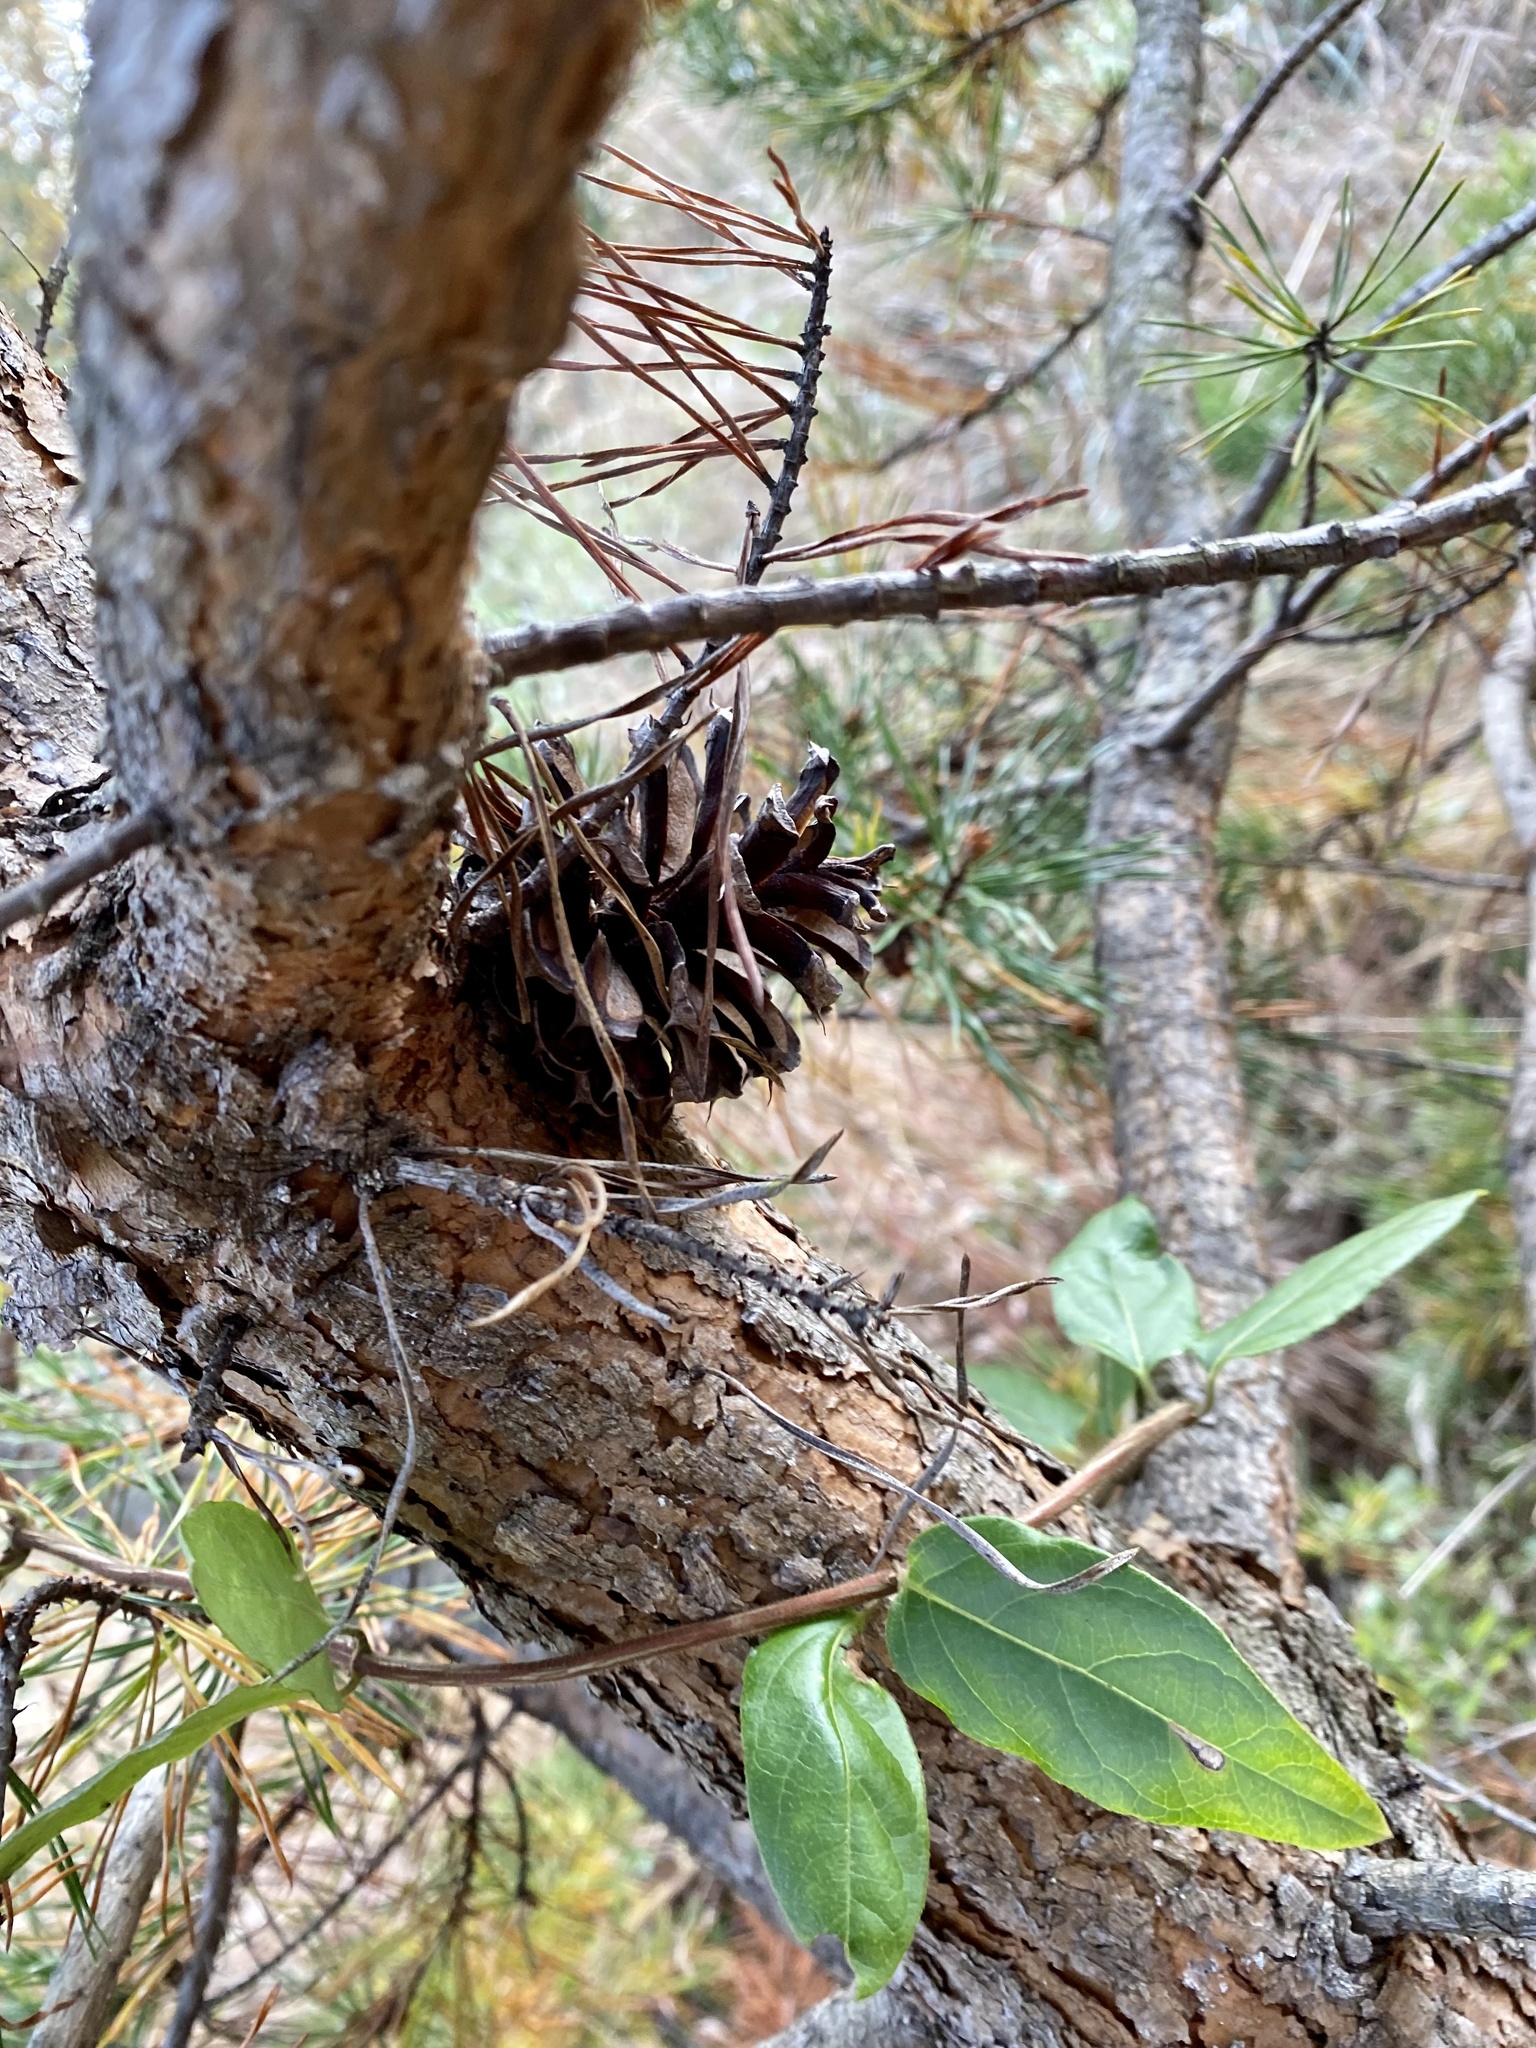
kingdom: Plantae
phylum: Tracheophyta
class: Pinopsida
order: Pinales
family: Pinaceae
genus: Pinus
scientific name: Pinus virginiana
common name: Scrub pine
